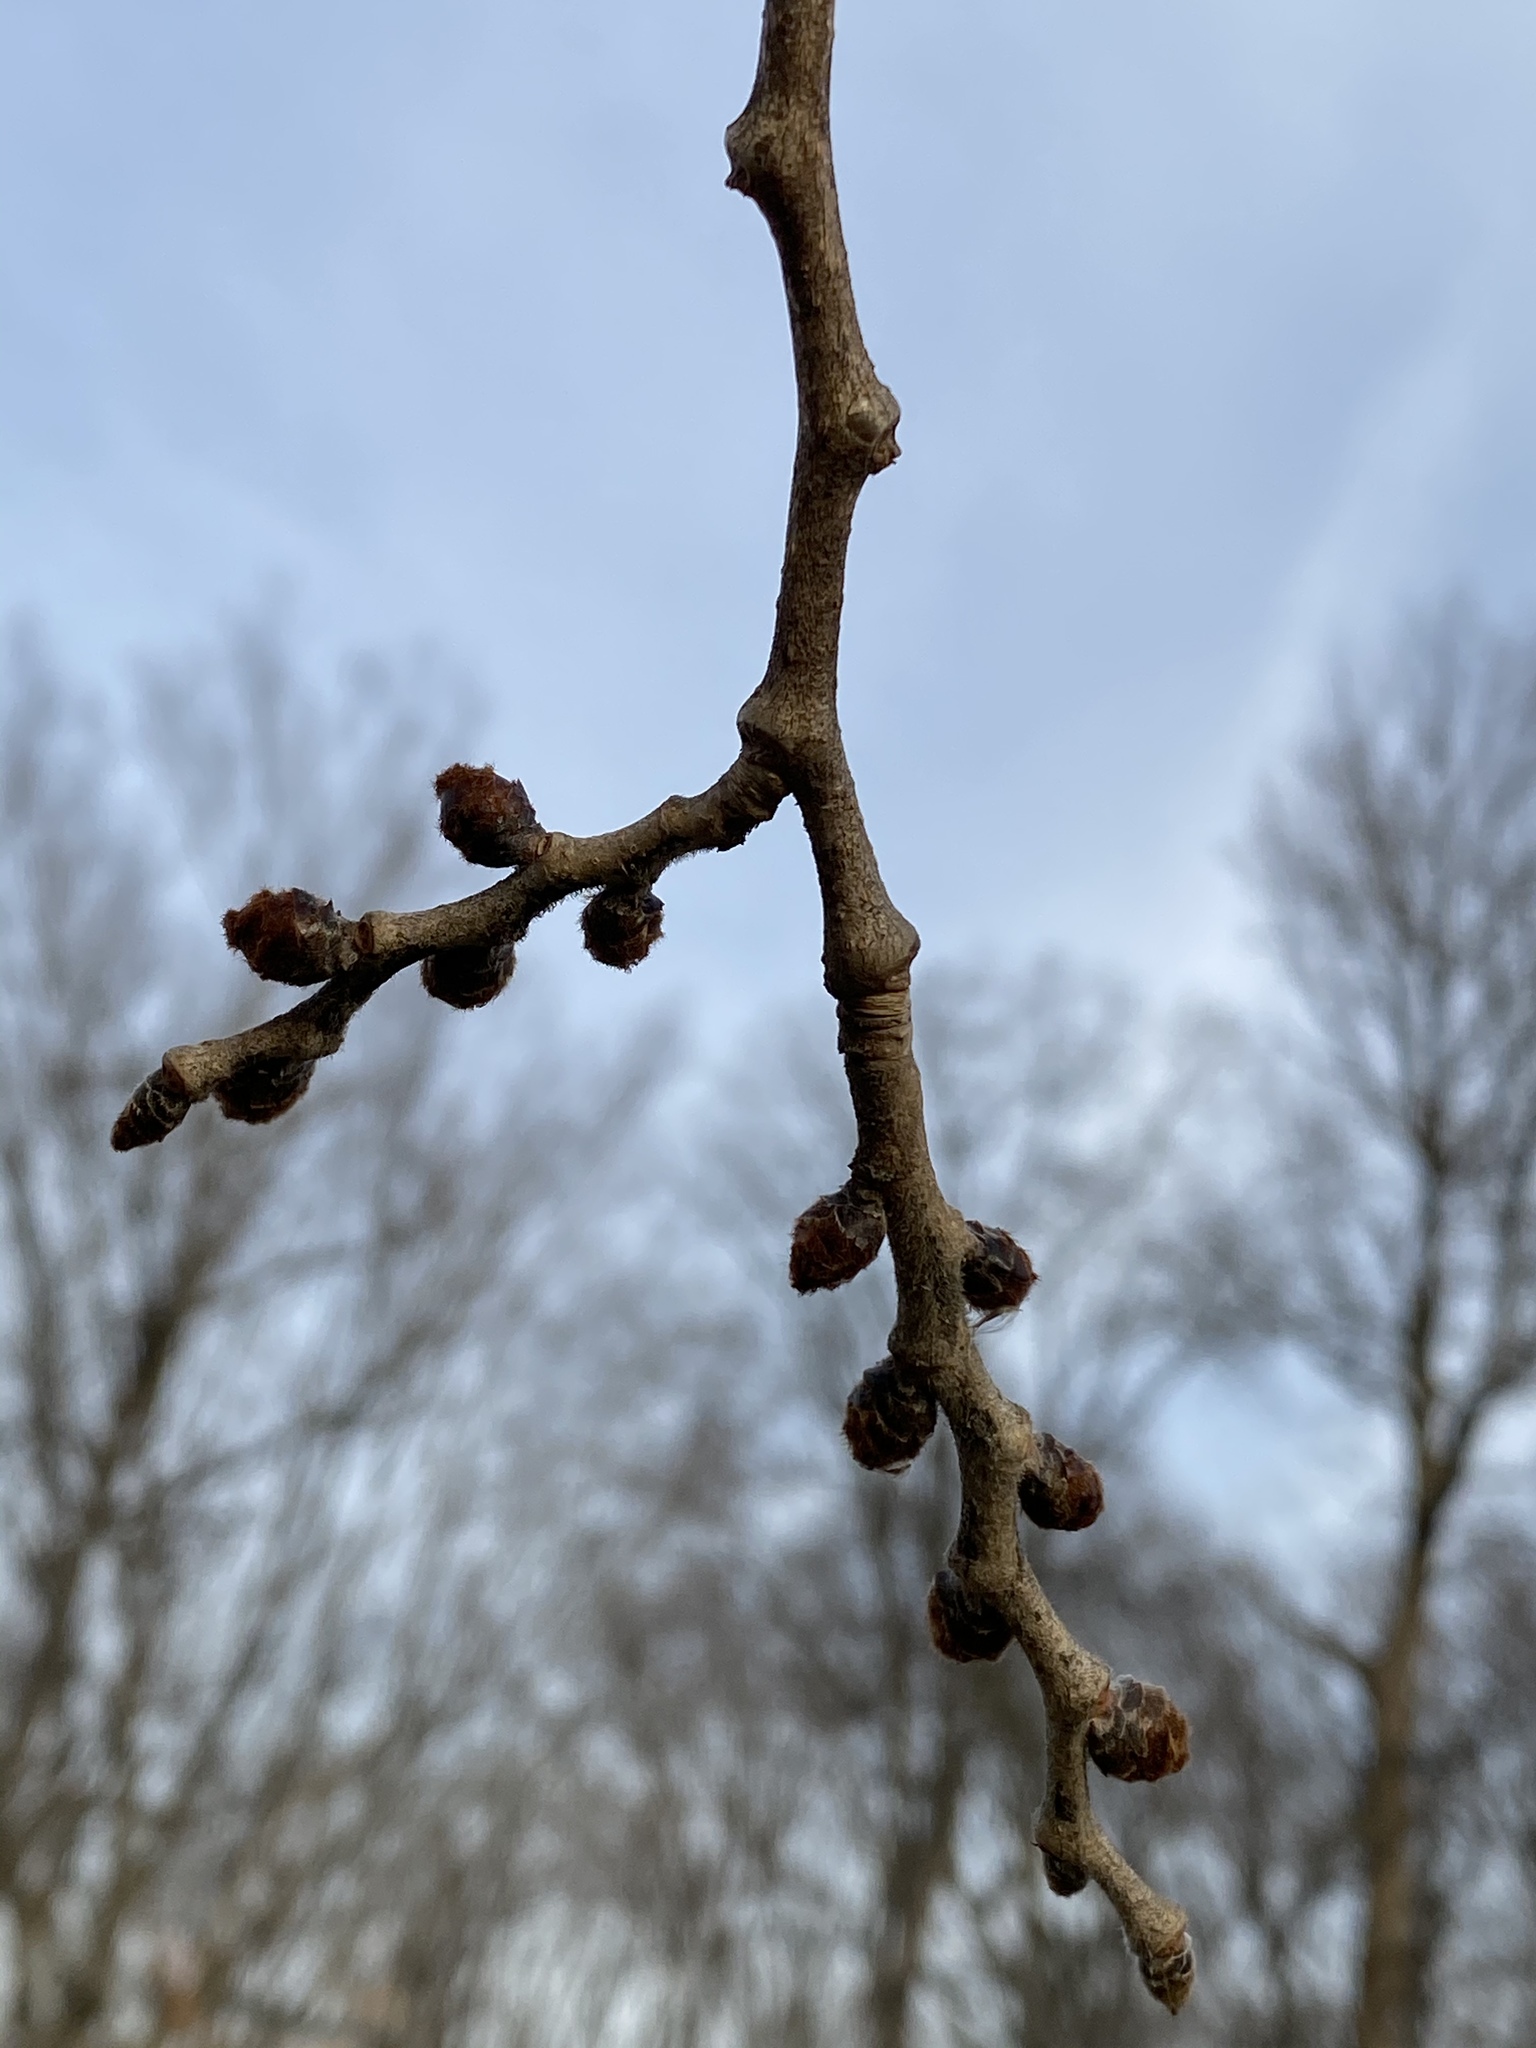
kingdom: Plantae
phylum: Tracheophyta
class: Magnoliopsida
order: Rosales
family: Ulmaceae
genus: Ulmus
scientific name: Ulmus rubra
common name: Slippery elm
